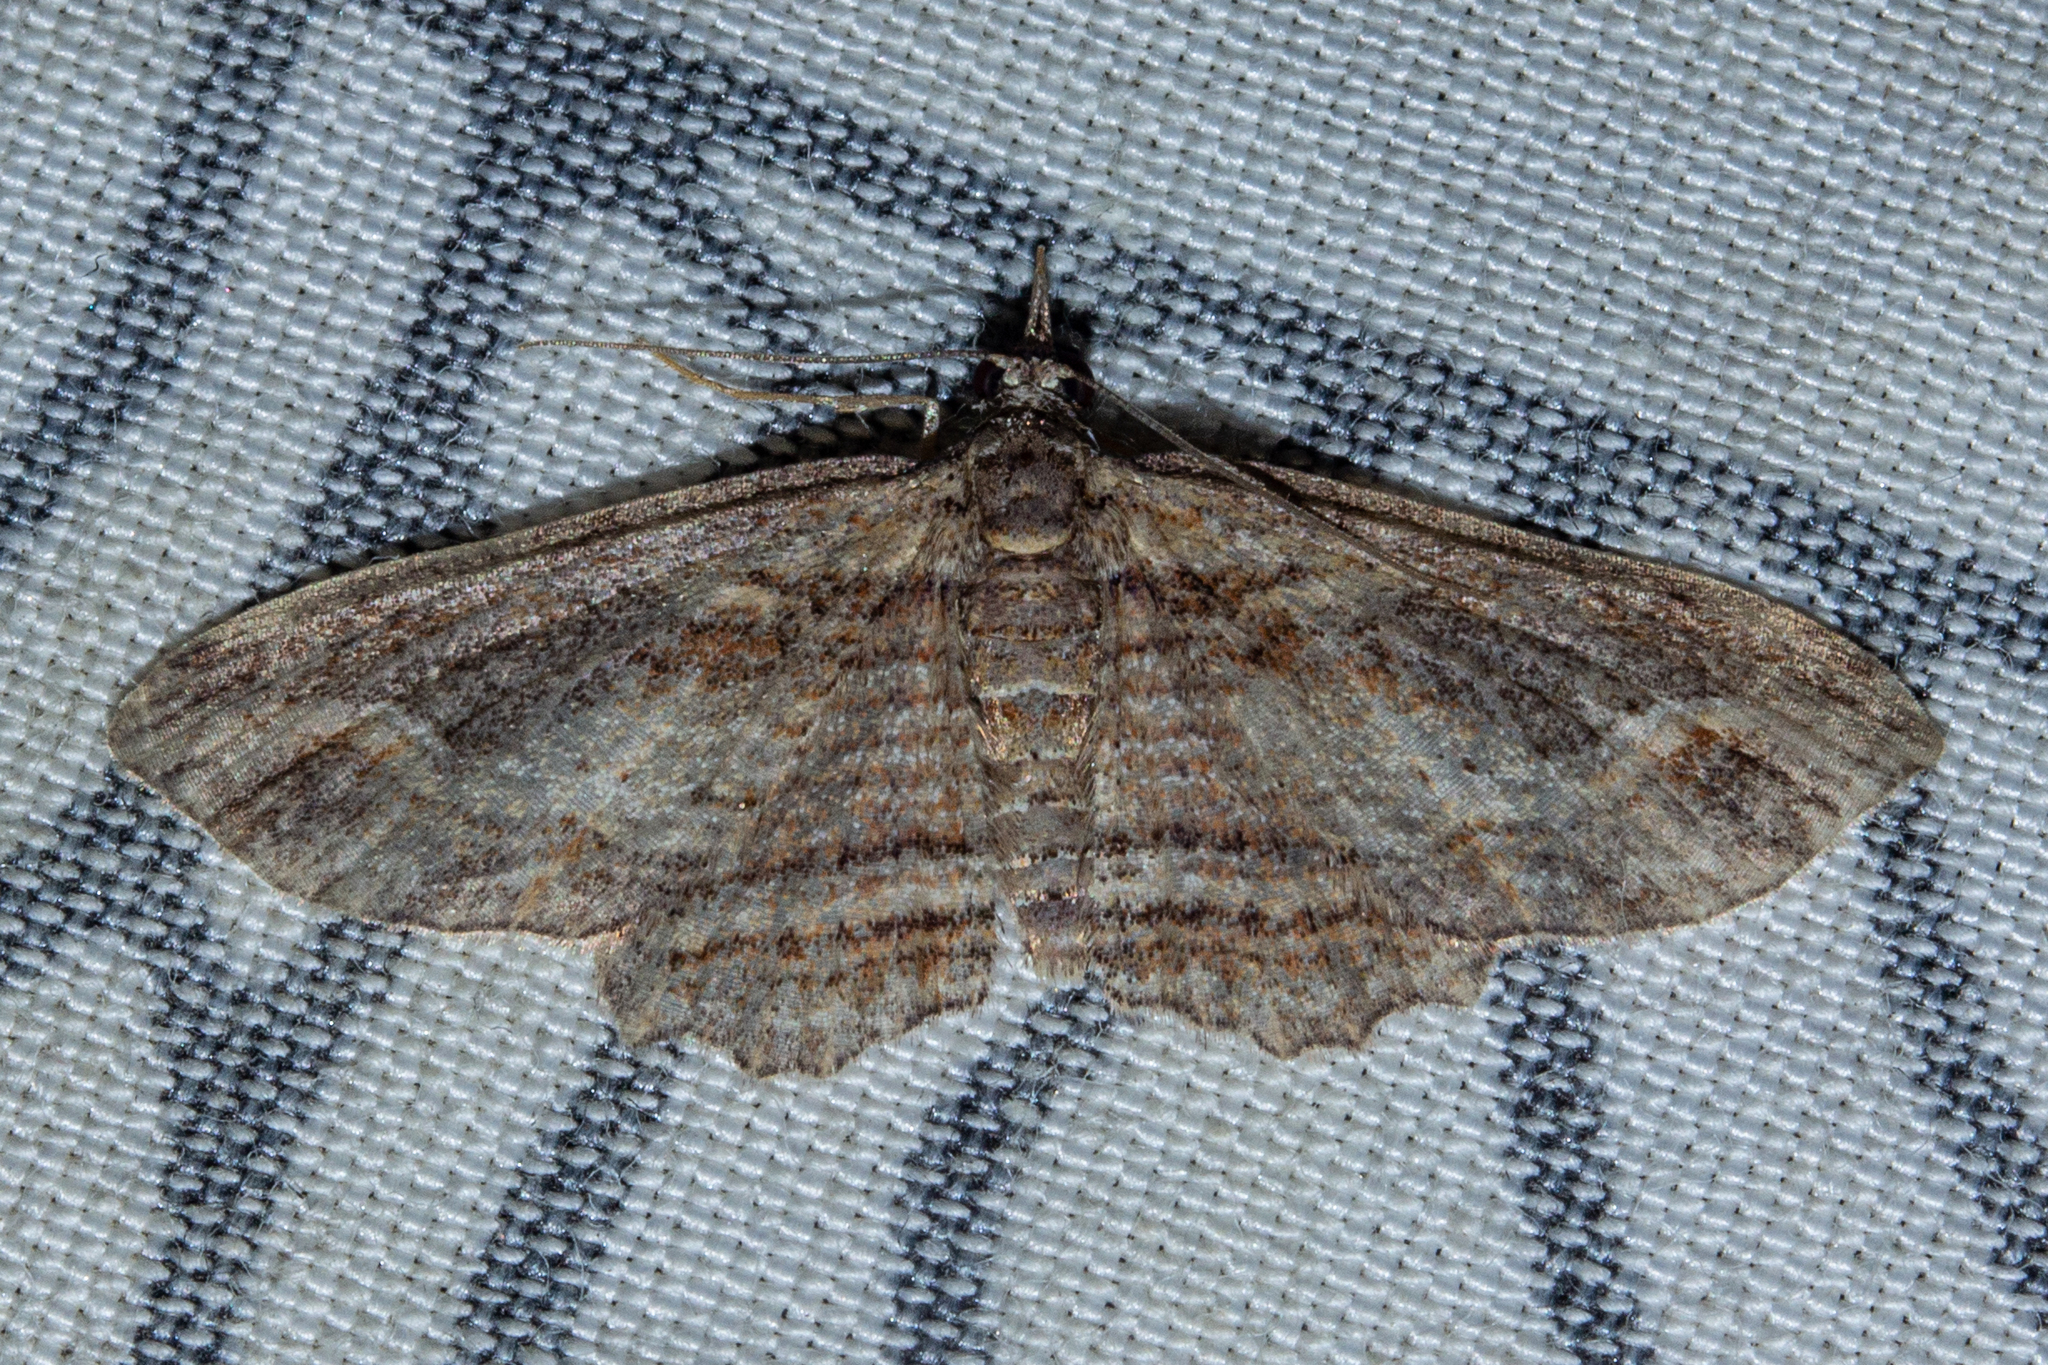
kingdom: Animalia
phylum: Arthropoda
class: Insecta
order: Lepidoptera
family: Geometridae
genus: Chloroclystis
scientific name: Chloroclystis filata
